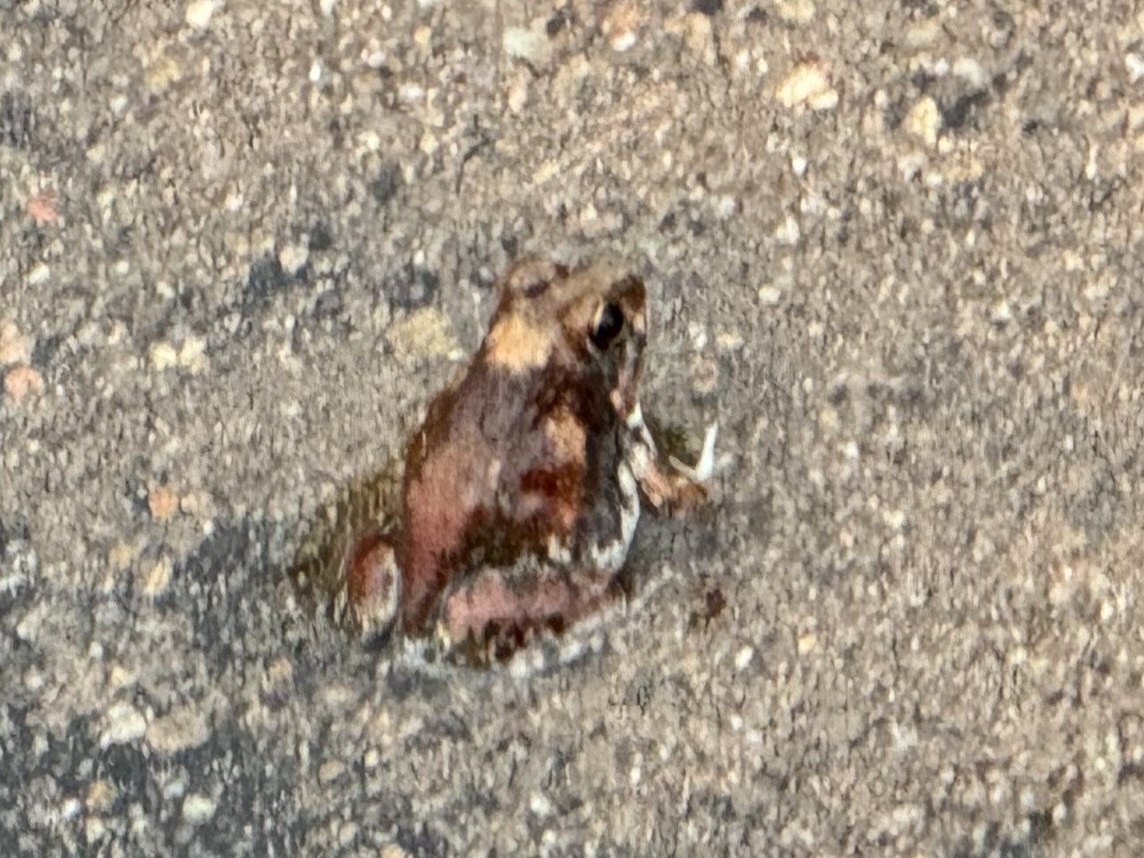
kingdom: Animalia
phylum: Chordata
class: Amphibia
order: Anura
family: Pyxicephalidae
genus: Tomopterna
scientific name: Tomopterna natalensis
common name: Natal sand frog
